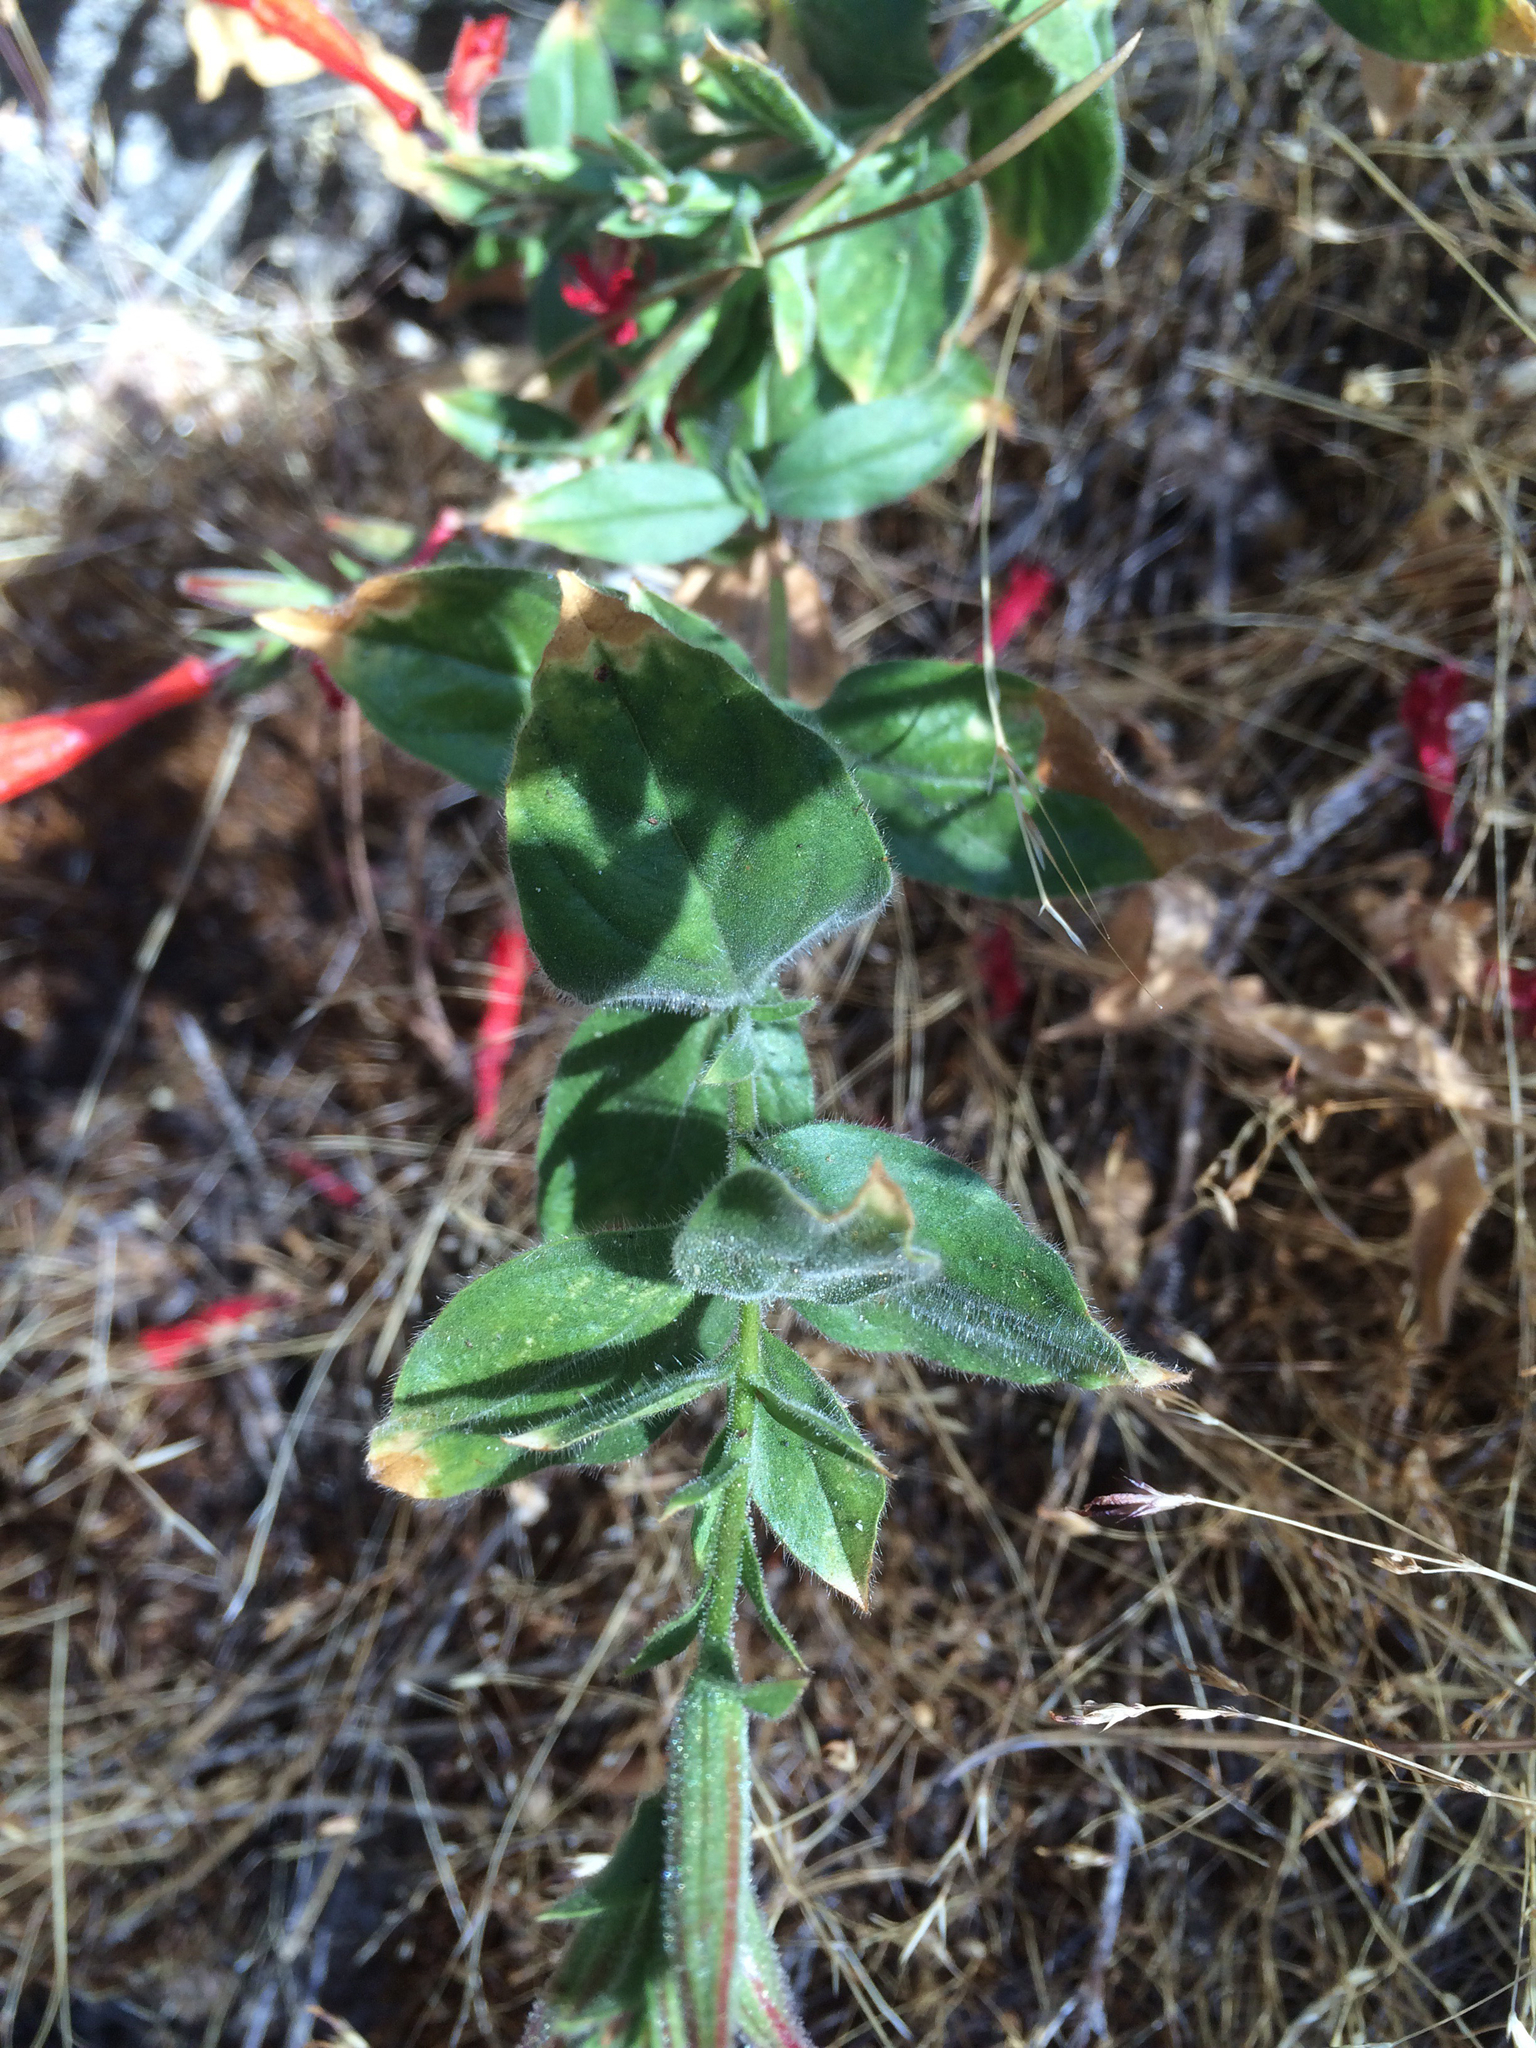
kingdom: Plantae
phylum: Tracheophyta
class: Magnoliopsida
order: Myrtales
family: Onagraceae
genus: Epilobium
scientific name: Epilobium canum
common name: California-fuchsia
